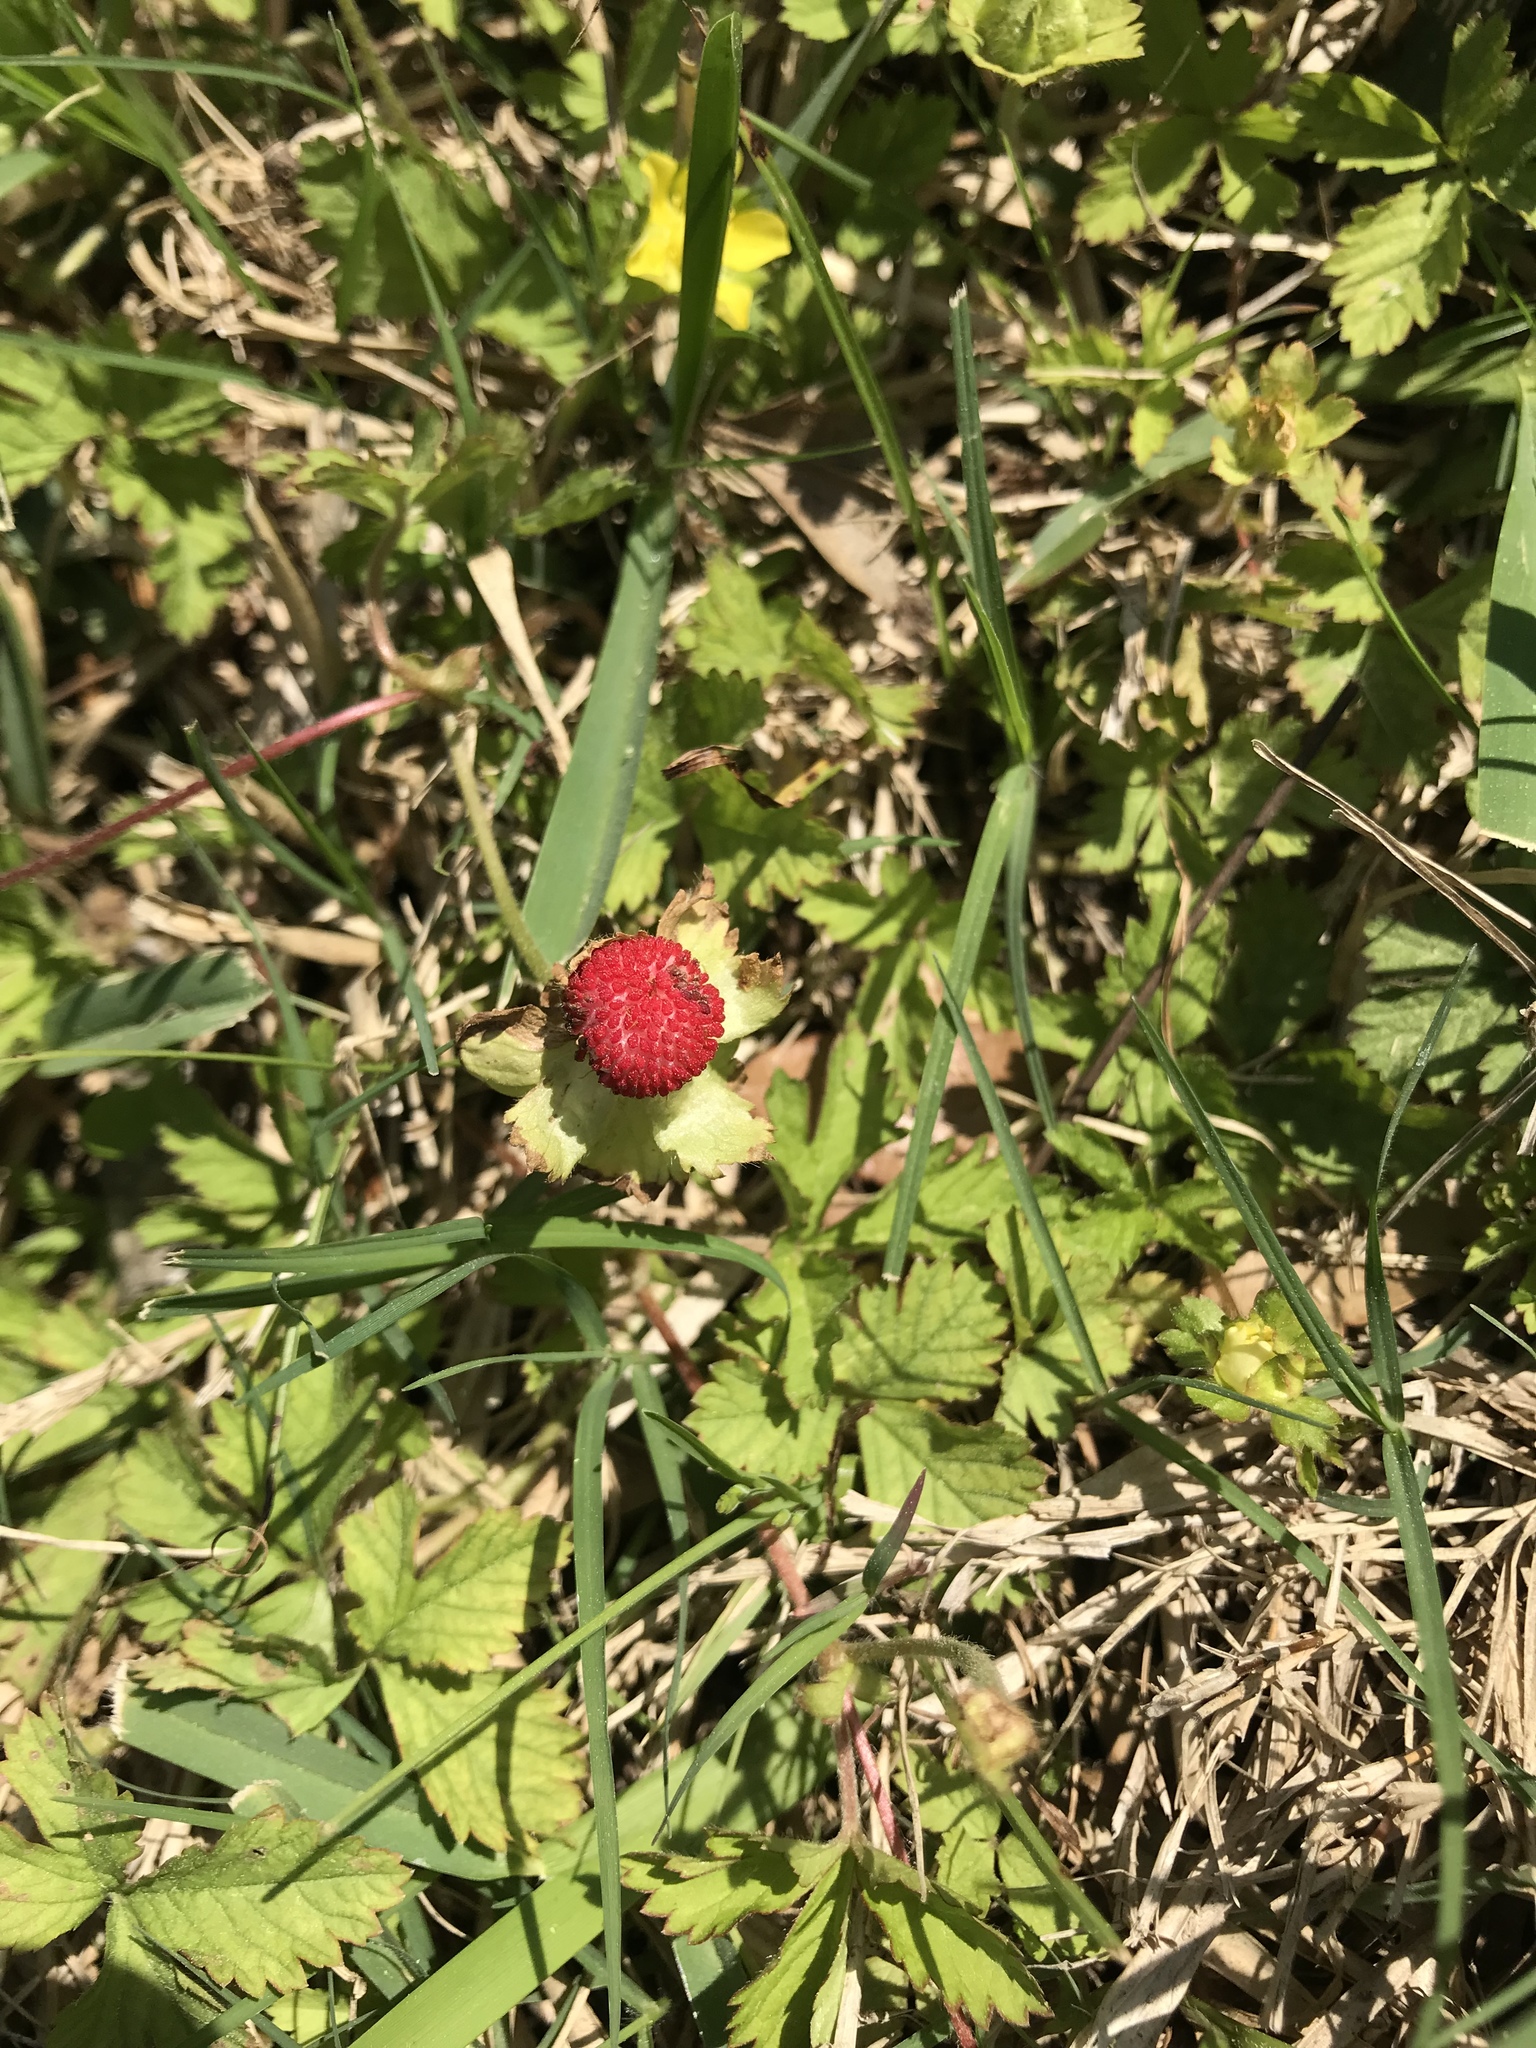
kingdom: Plantae
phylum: Tracheophyta
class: Magnoliopsida
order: Rosales
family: Rosaceae
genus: Potentilla
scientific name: Potentilla indica
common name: Yellow-flowered strawberry
